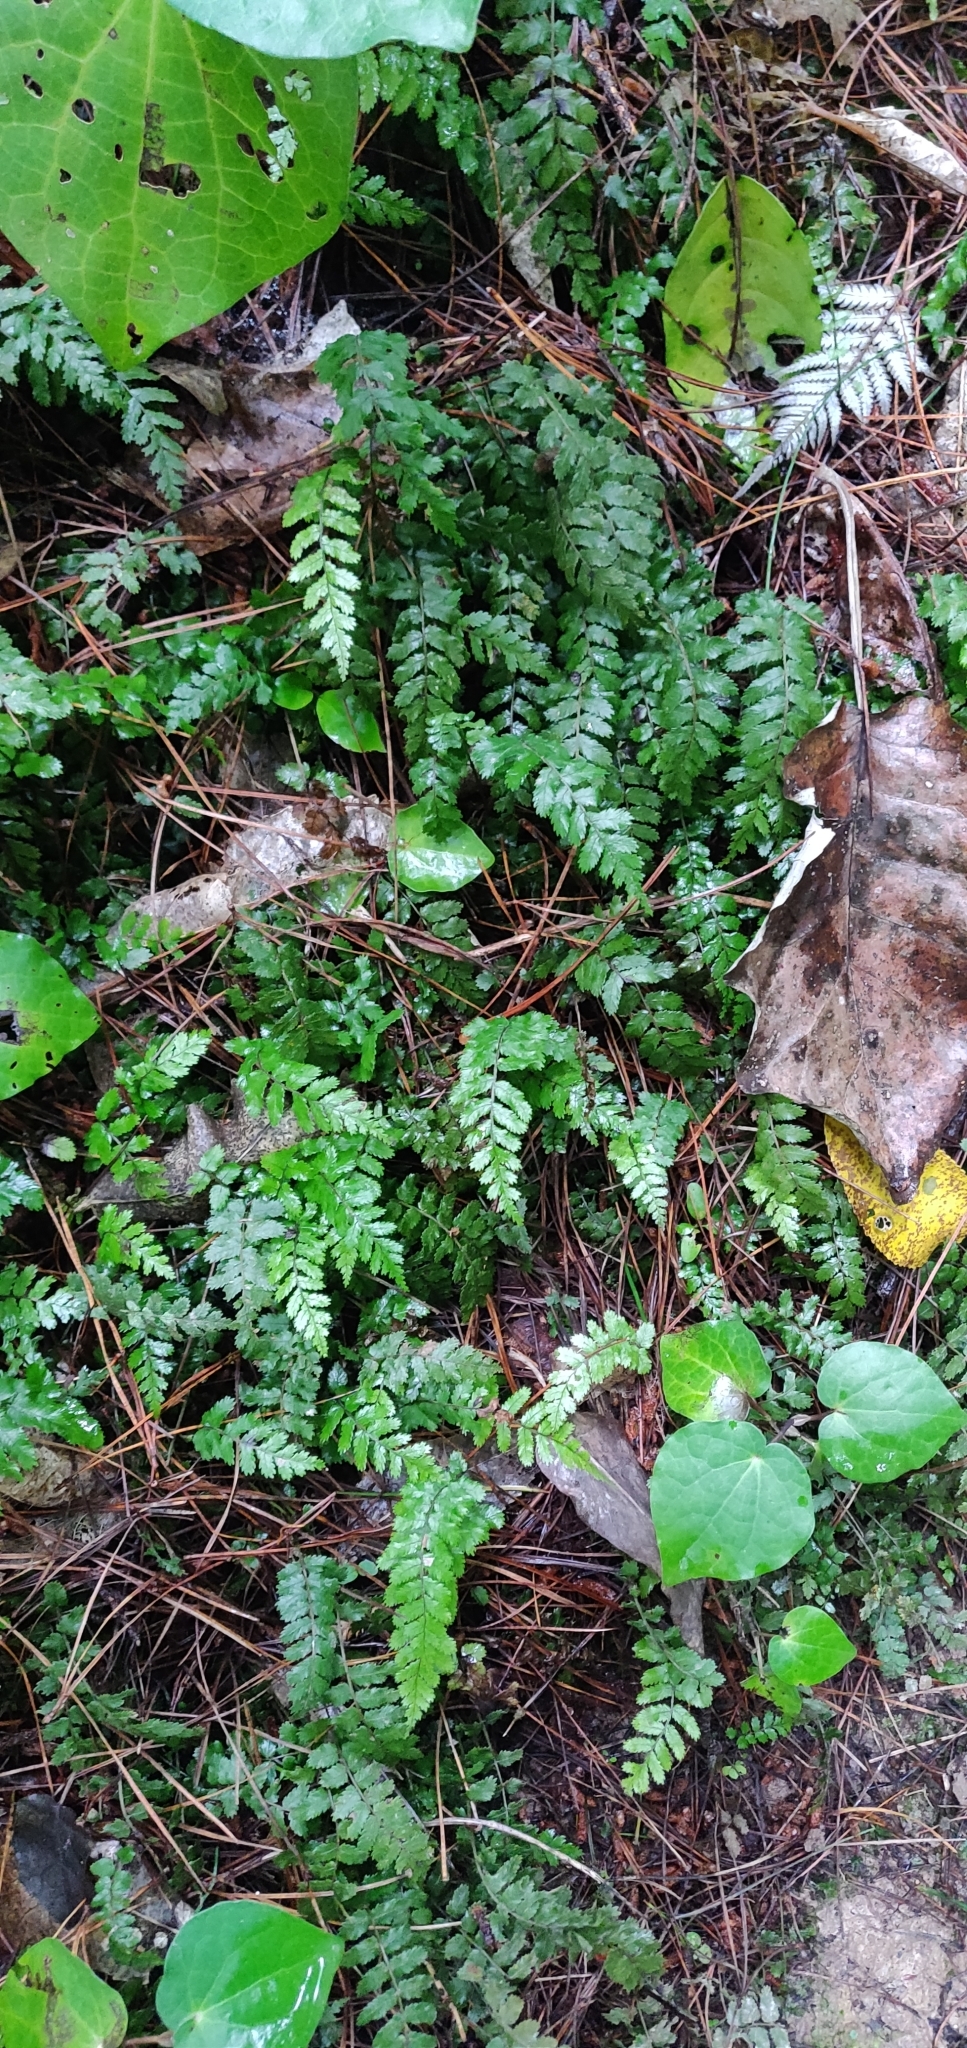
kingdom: Plantae
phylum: Tracheophyta
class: Polypodiopsida
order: Polypodiales
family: Blechnaceae
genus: Icarus
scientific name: Icarus filiformis
